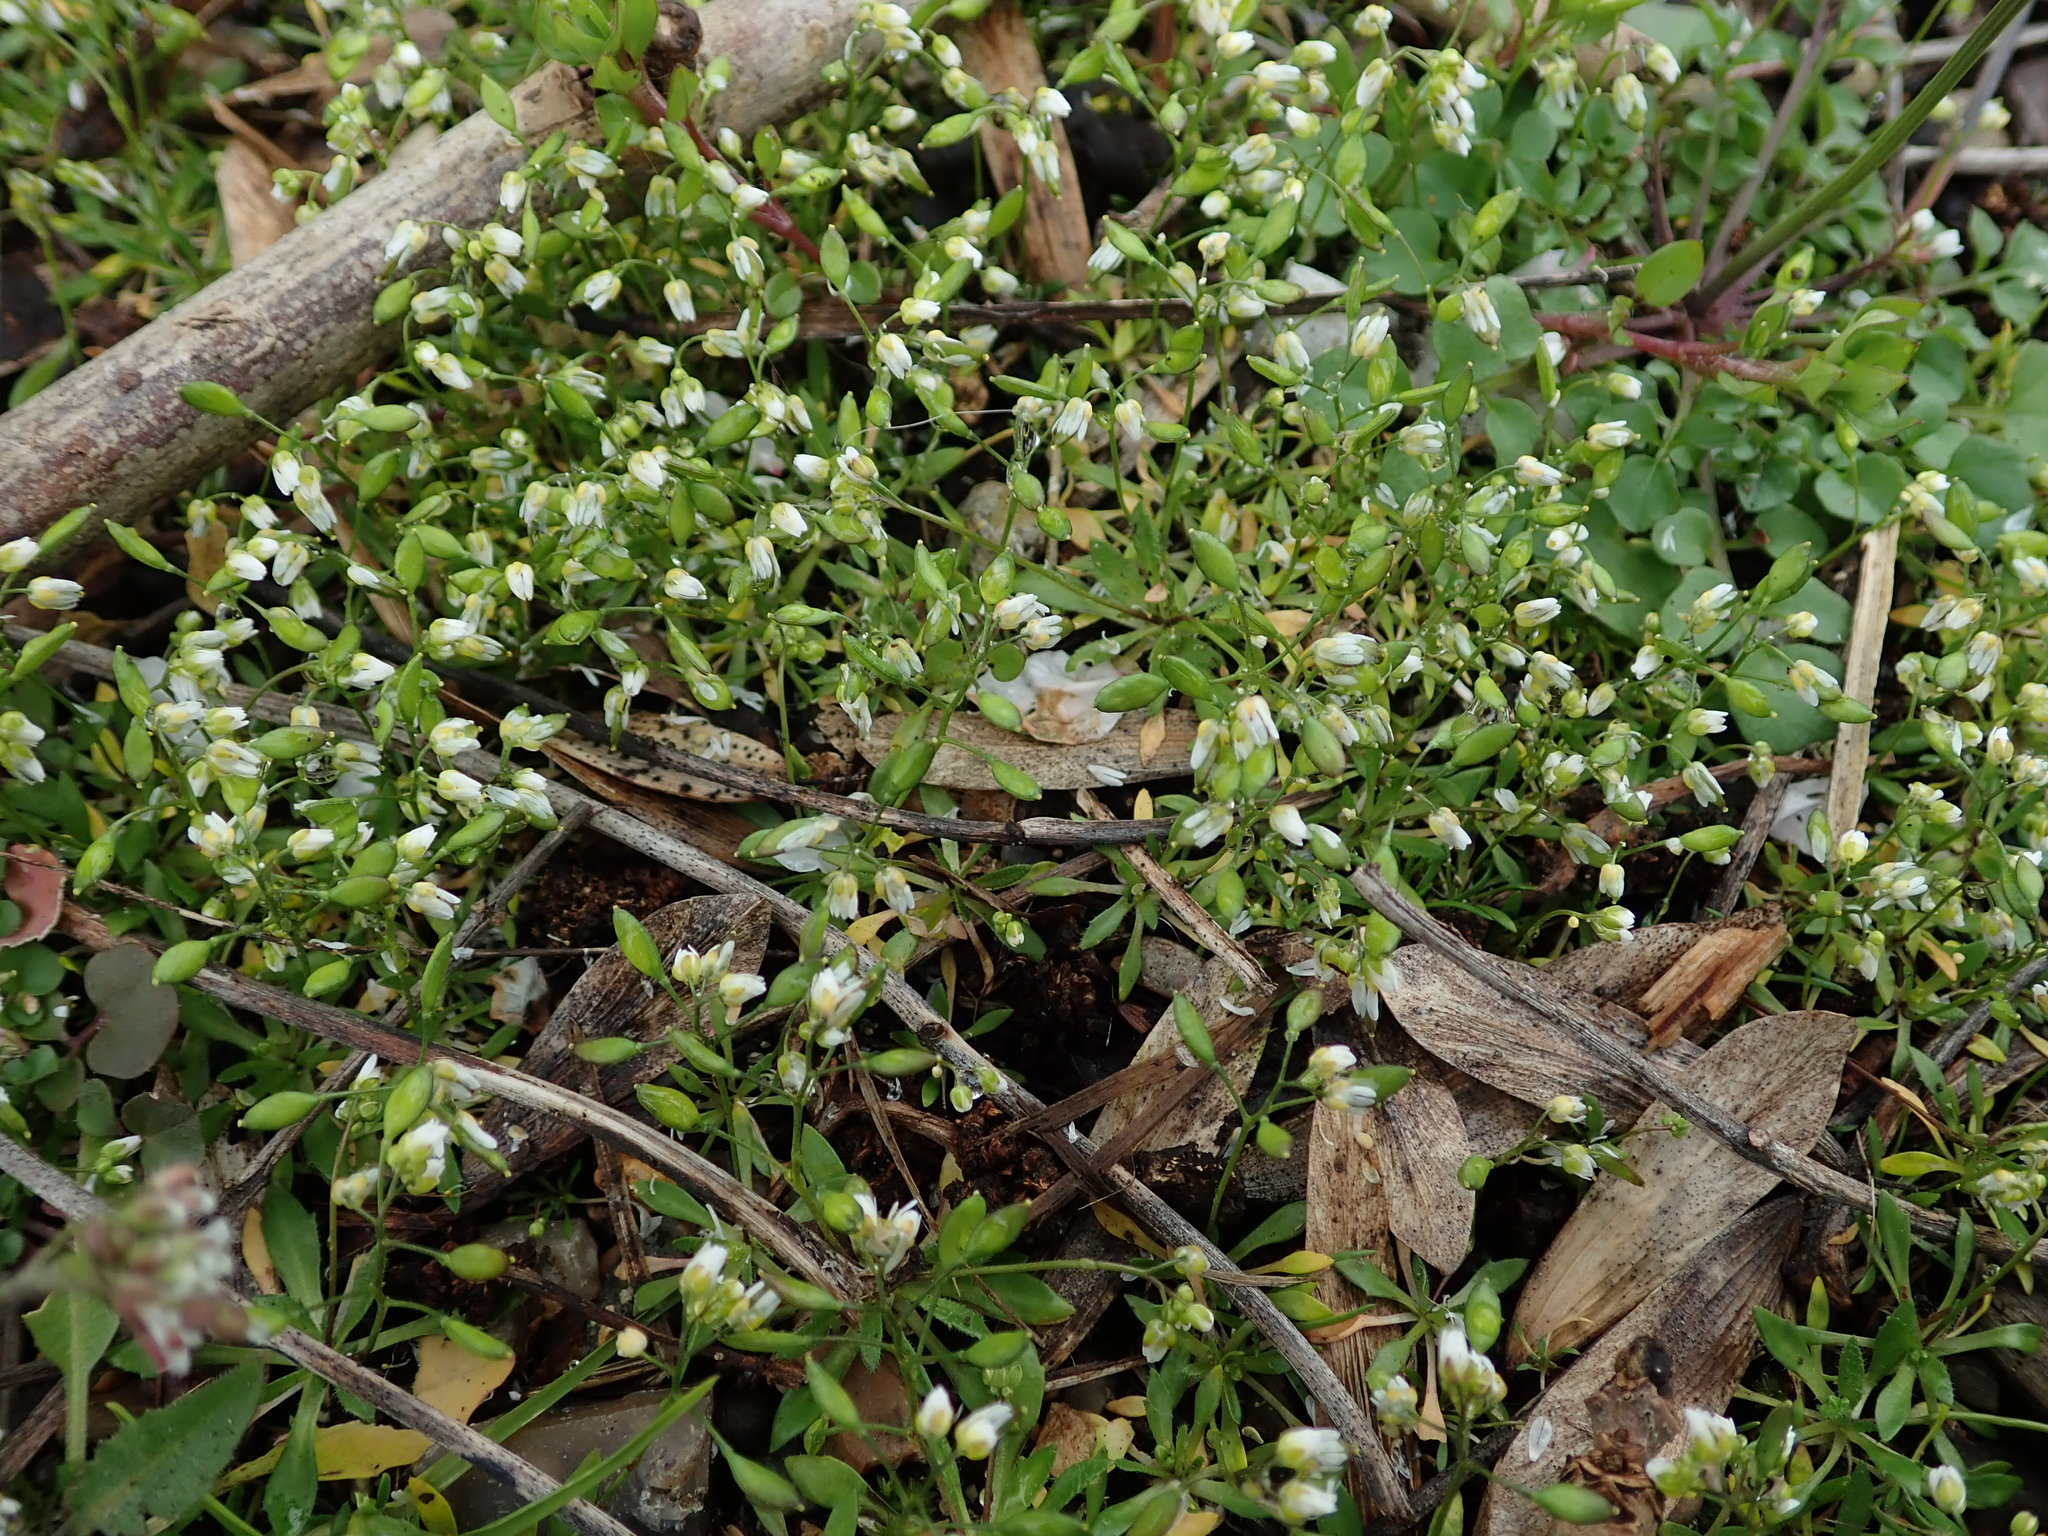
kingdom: Plantae
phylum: Tracheophyta
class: Magnoliopsida
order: Brassicales
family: Brassicaceae
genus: Draba
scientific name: Draba verna
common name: Spring draba
